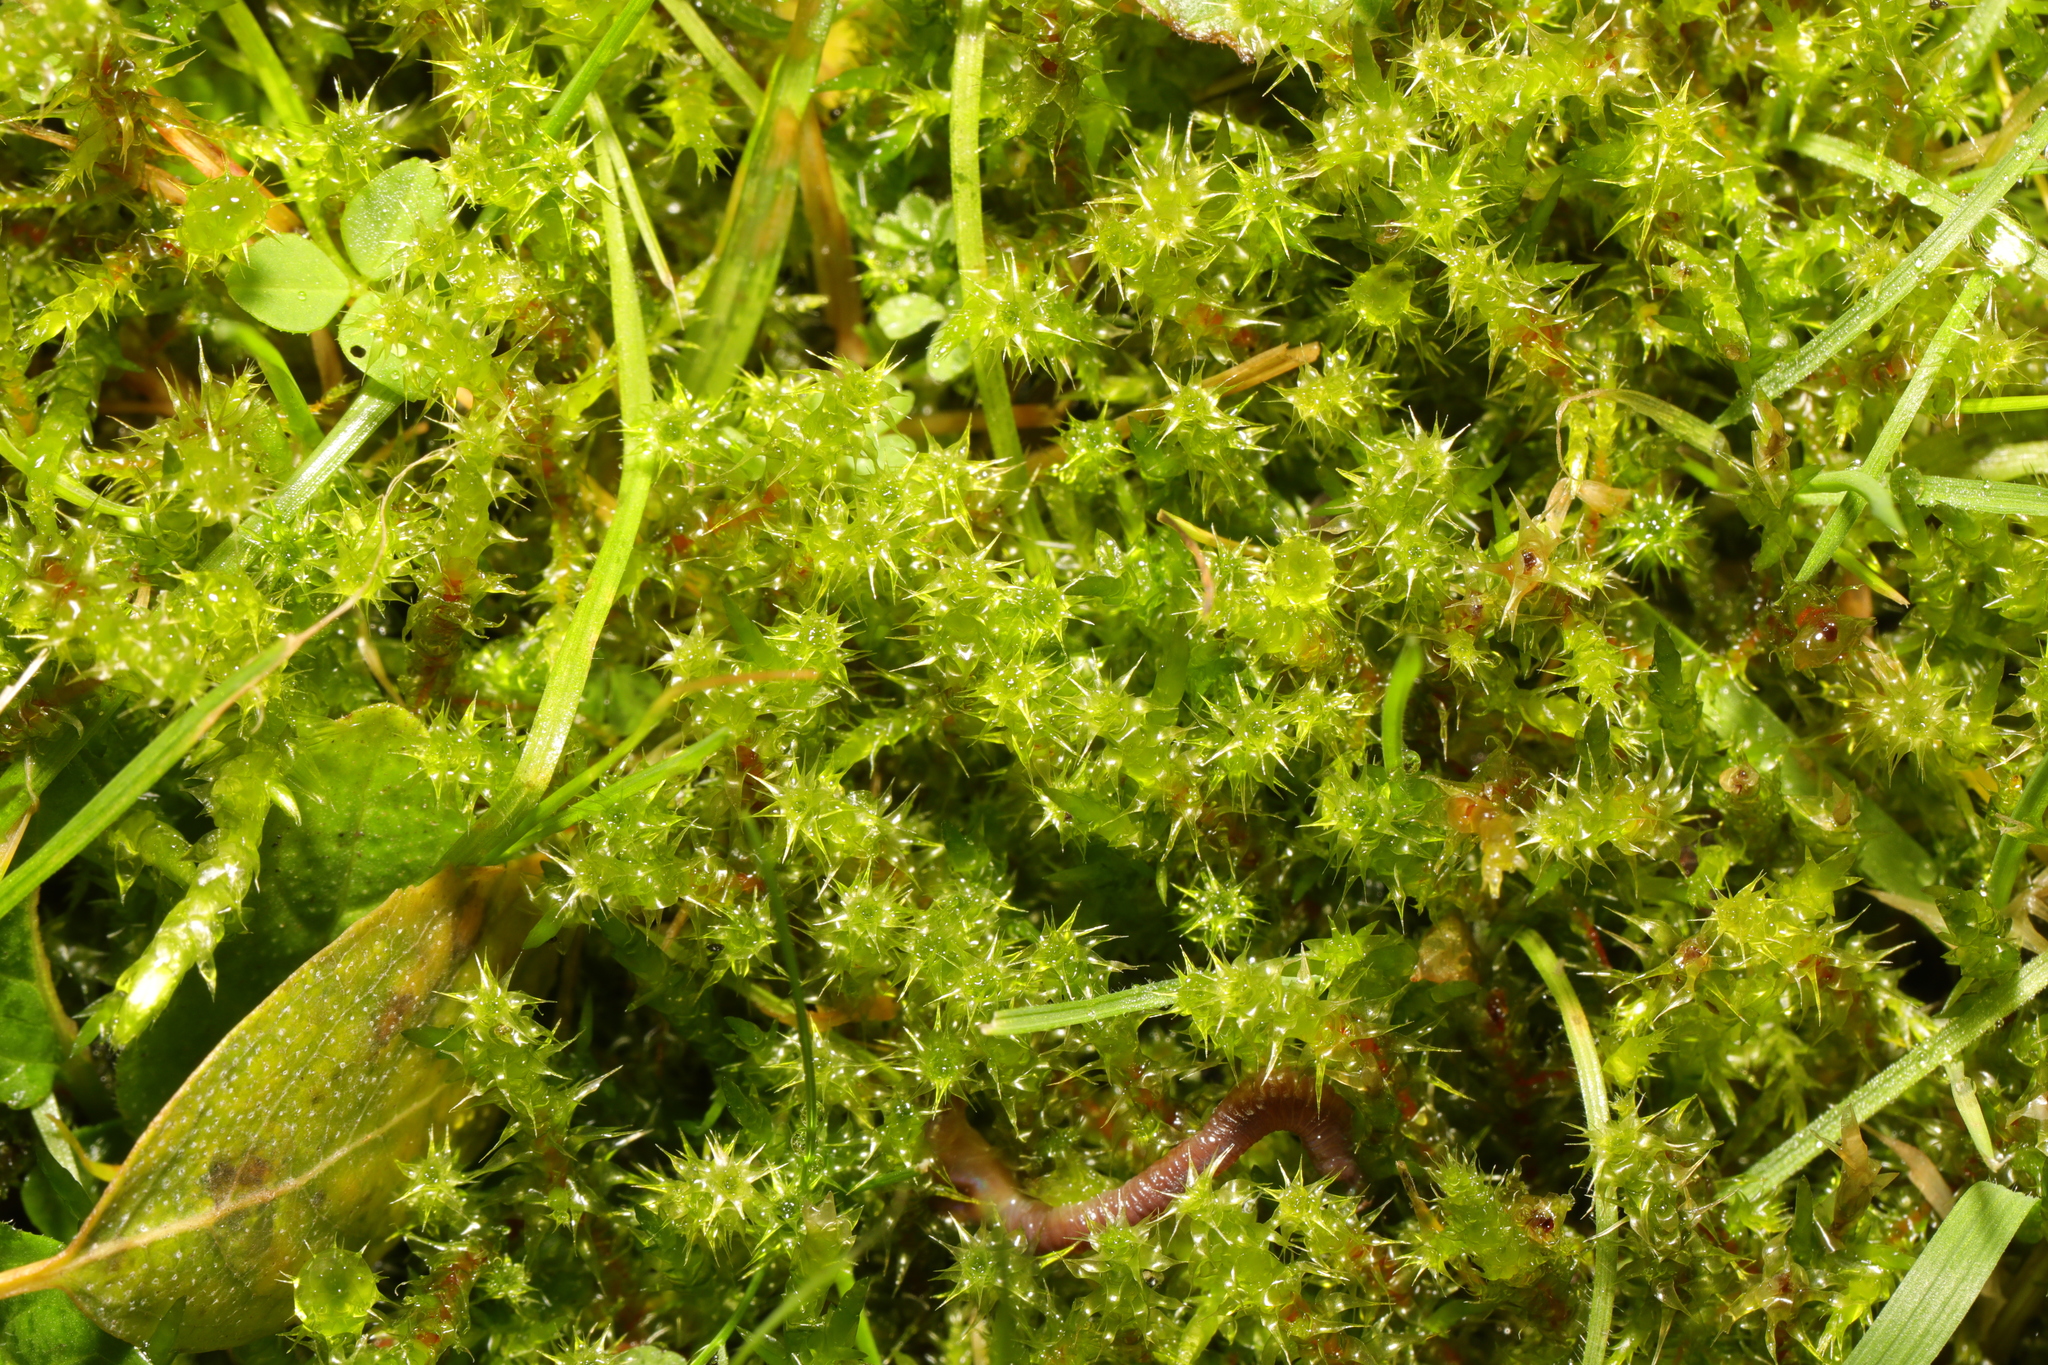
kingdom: Plantae
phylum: Bryophyta
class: Bryopsida
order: Hypnales
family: Hylocomiaceae
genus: Rhytidiadelphus
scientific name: Rhytidiadelphus squarrosus
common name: Springy turf-moss
